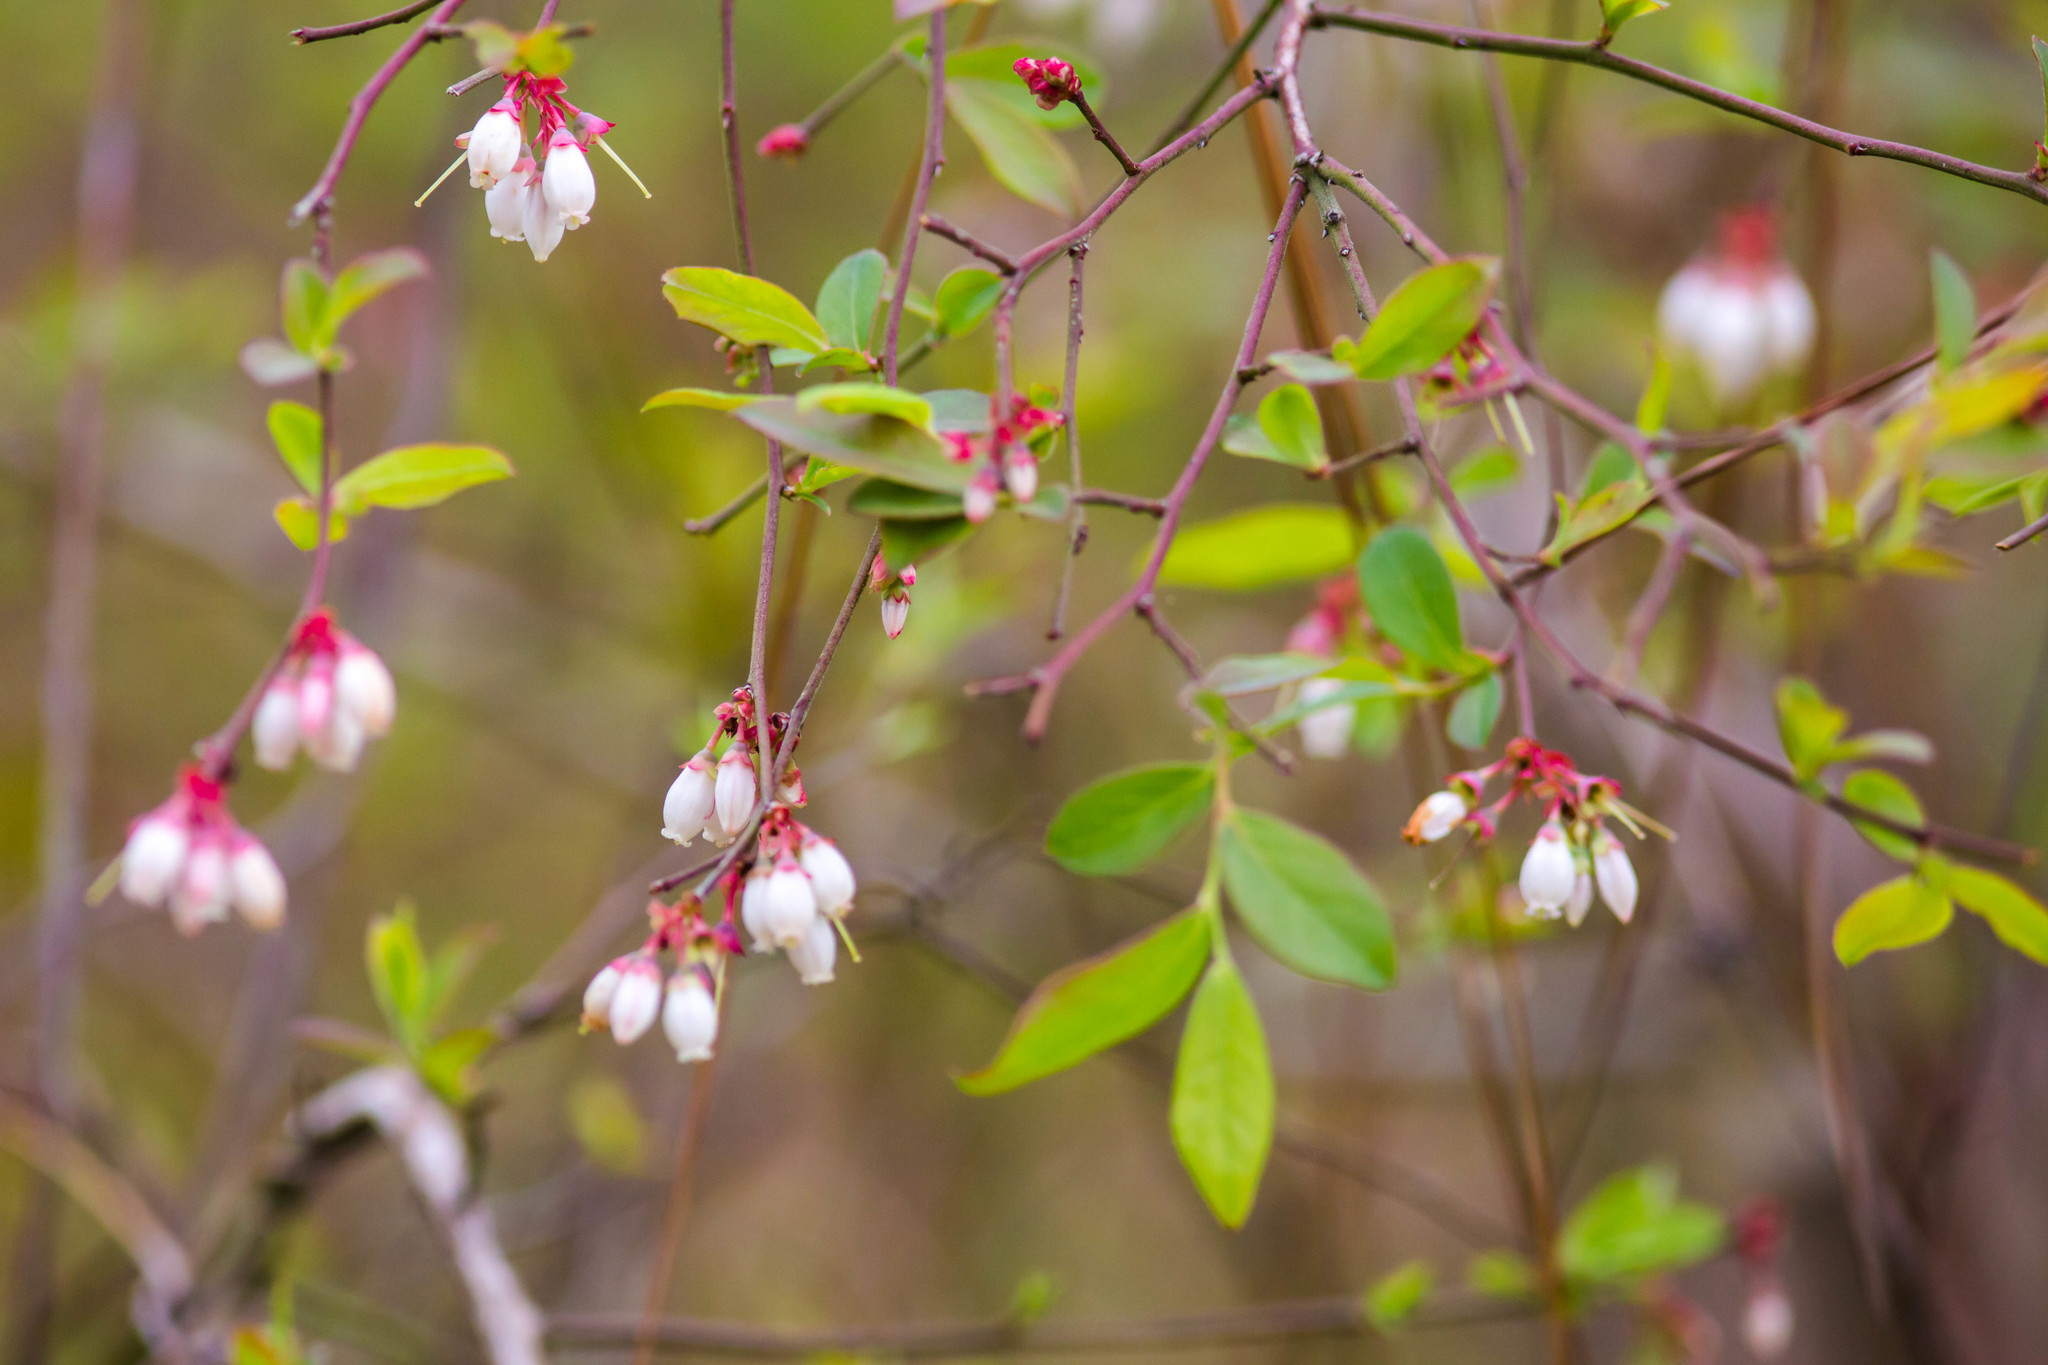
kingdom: Plantae
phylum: Tracheophyta
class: Magnoliopsida
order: Ericales
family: Ericaceae
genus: Vaccinium
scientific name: Vaccinium corymbosum
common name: Blueberry
